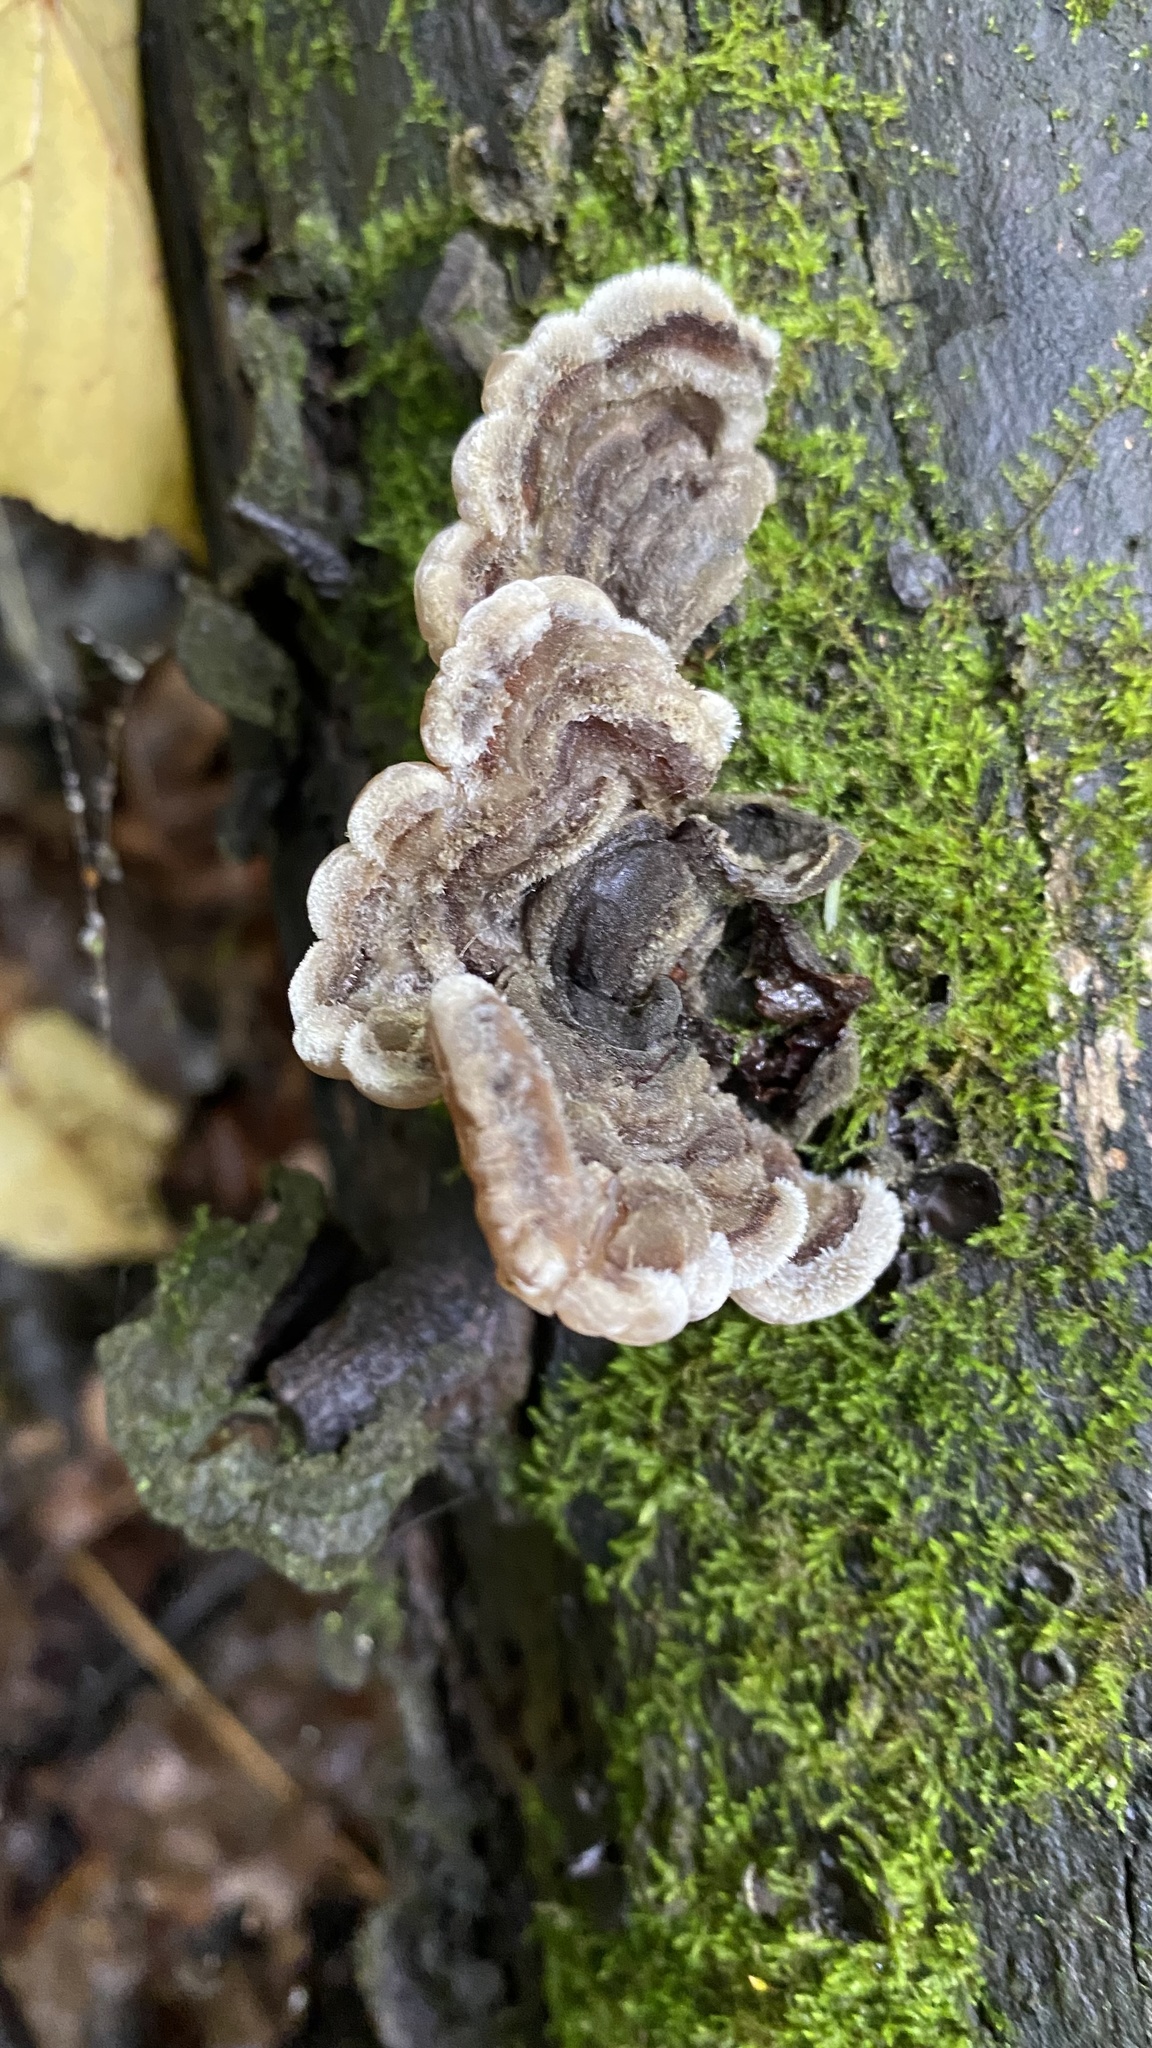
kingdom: Fungi
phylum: Basidiomycota
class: Agaricomycetes
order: Auriculariales
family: Auriculariaceae
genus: Auricularia
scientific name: Auricularia mesenterica
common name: Tripe fungus
